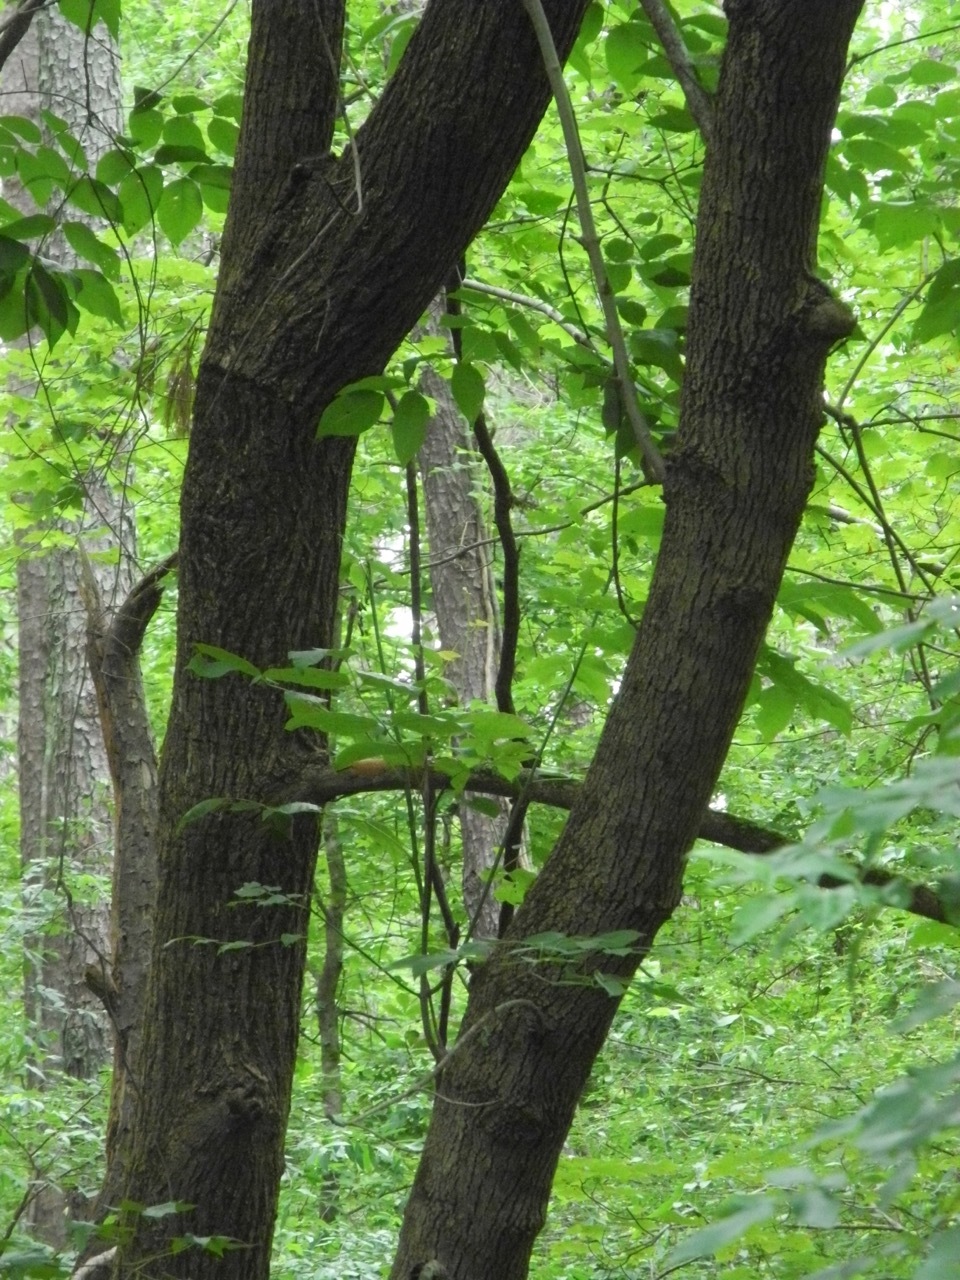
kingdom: Plantae
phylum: Tracheophyta
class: Magnoliopsida
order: Lamiales
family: Oleaceae
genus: Fraxinus
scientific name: Fraxinus americana
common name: White ash
